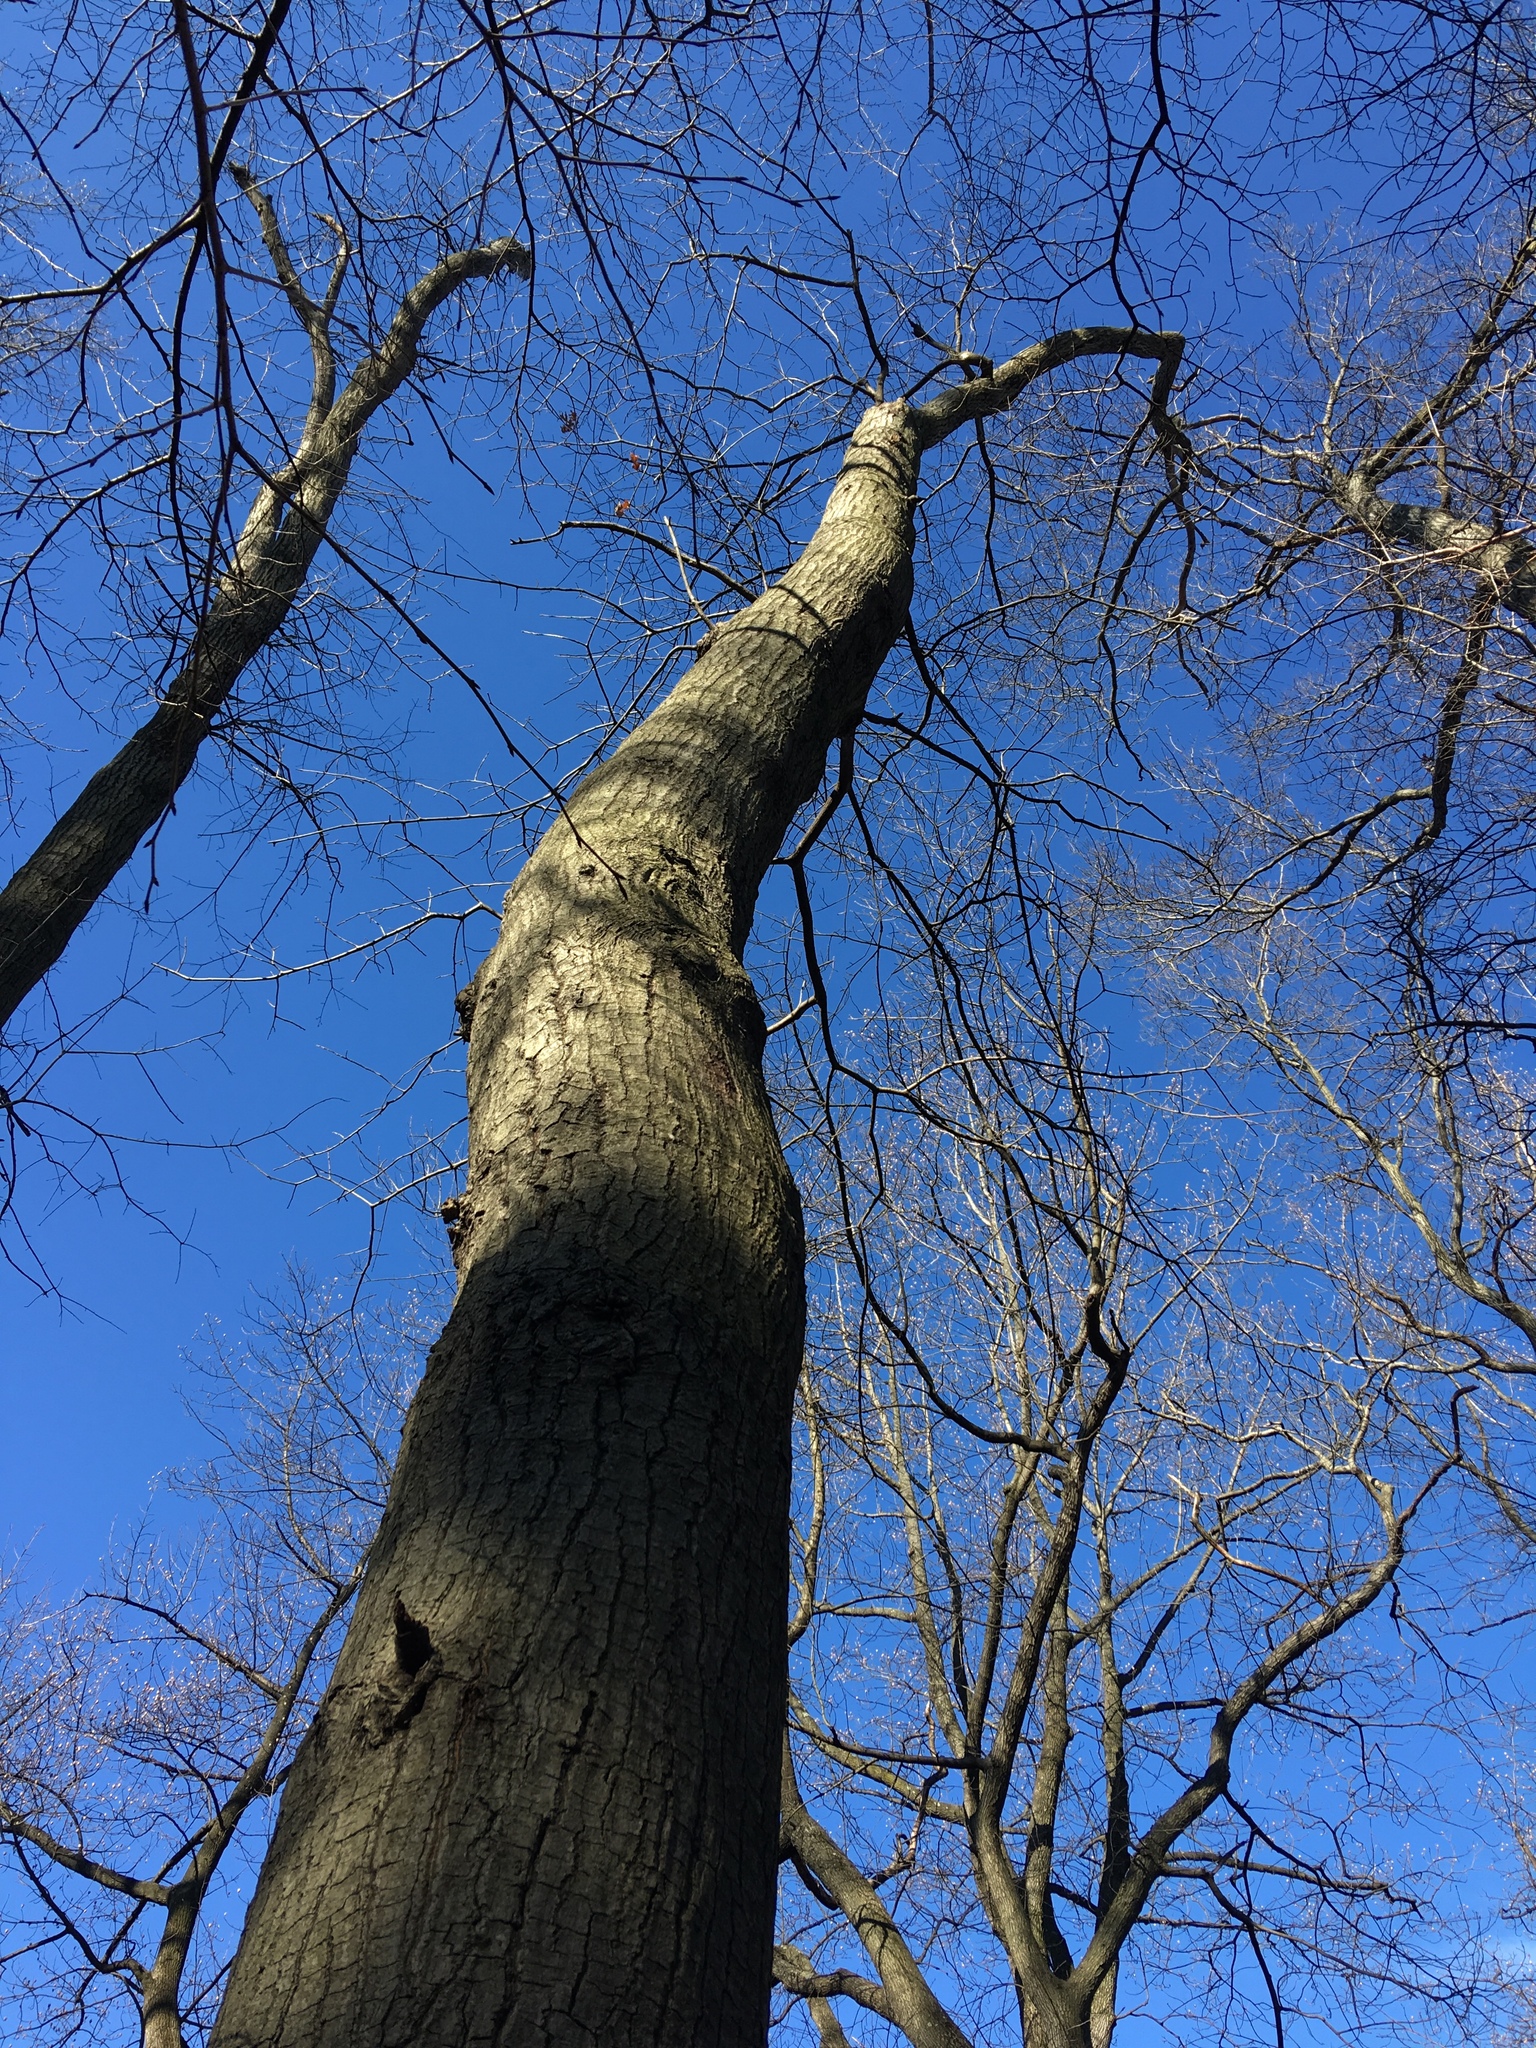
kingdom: Plantae
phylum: Tracheophyta
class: Magnoliopsida
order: Fagales
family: Fagaceae
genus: Quercus
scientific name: Quercus palustris
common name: Pin oak
